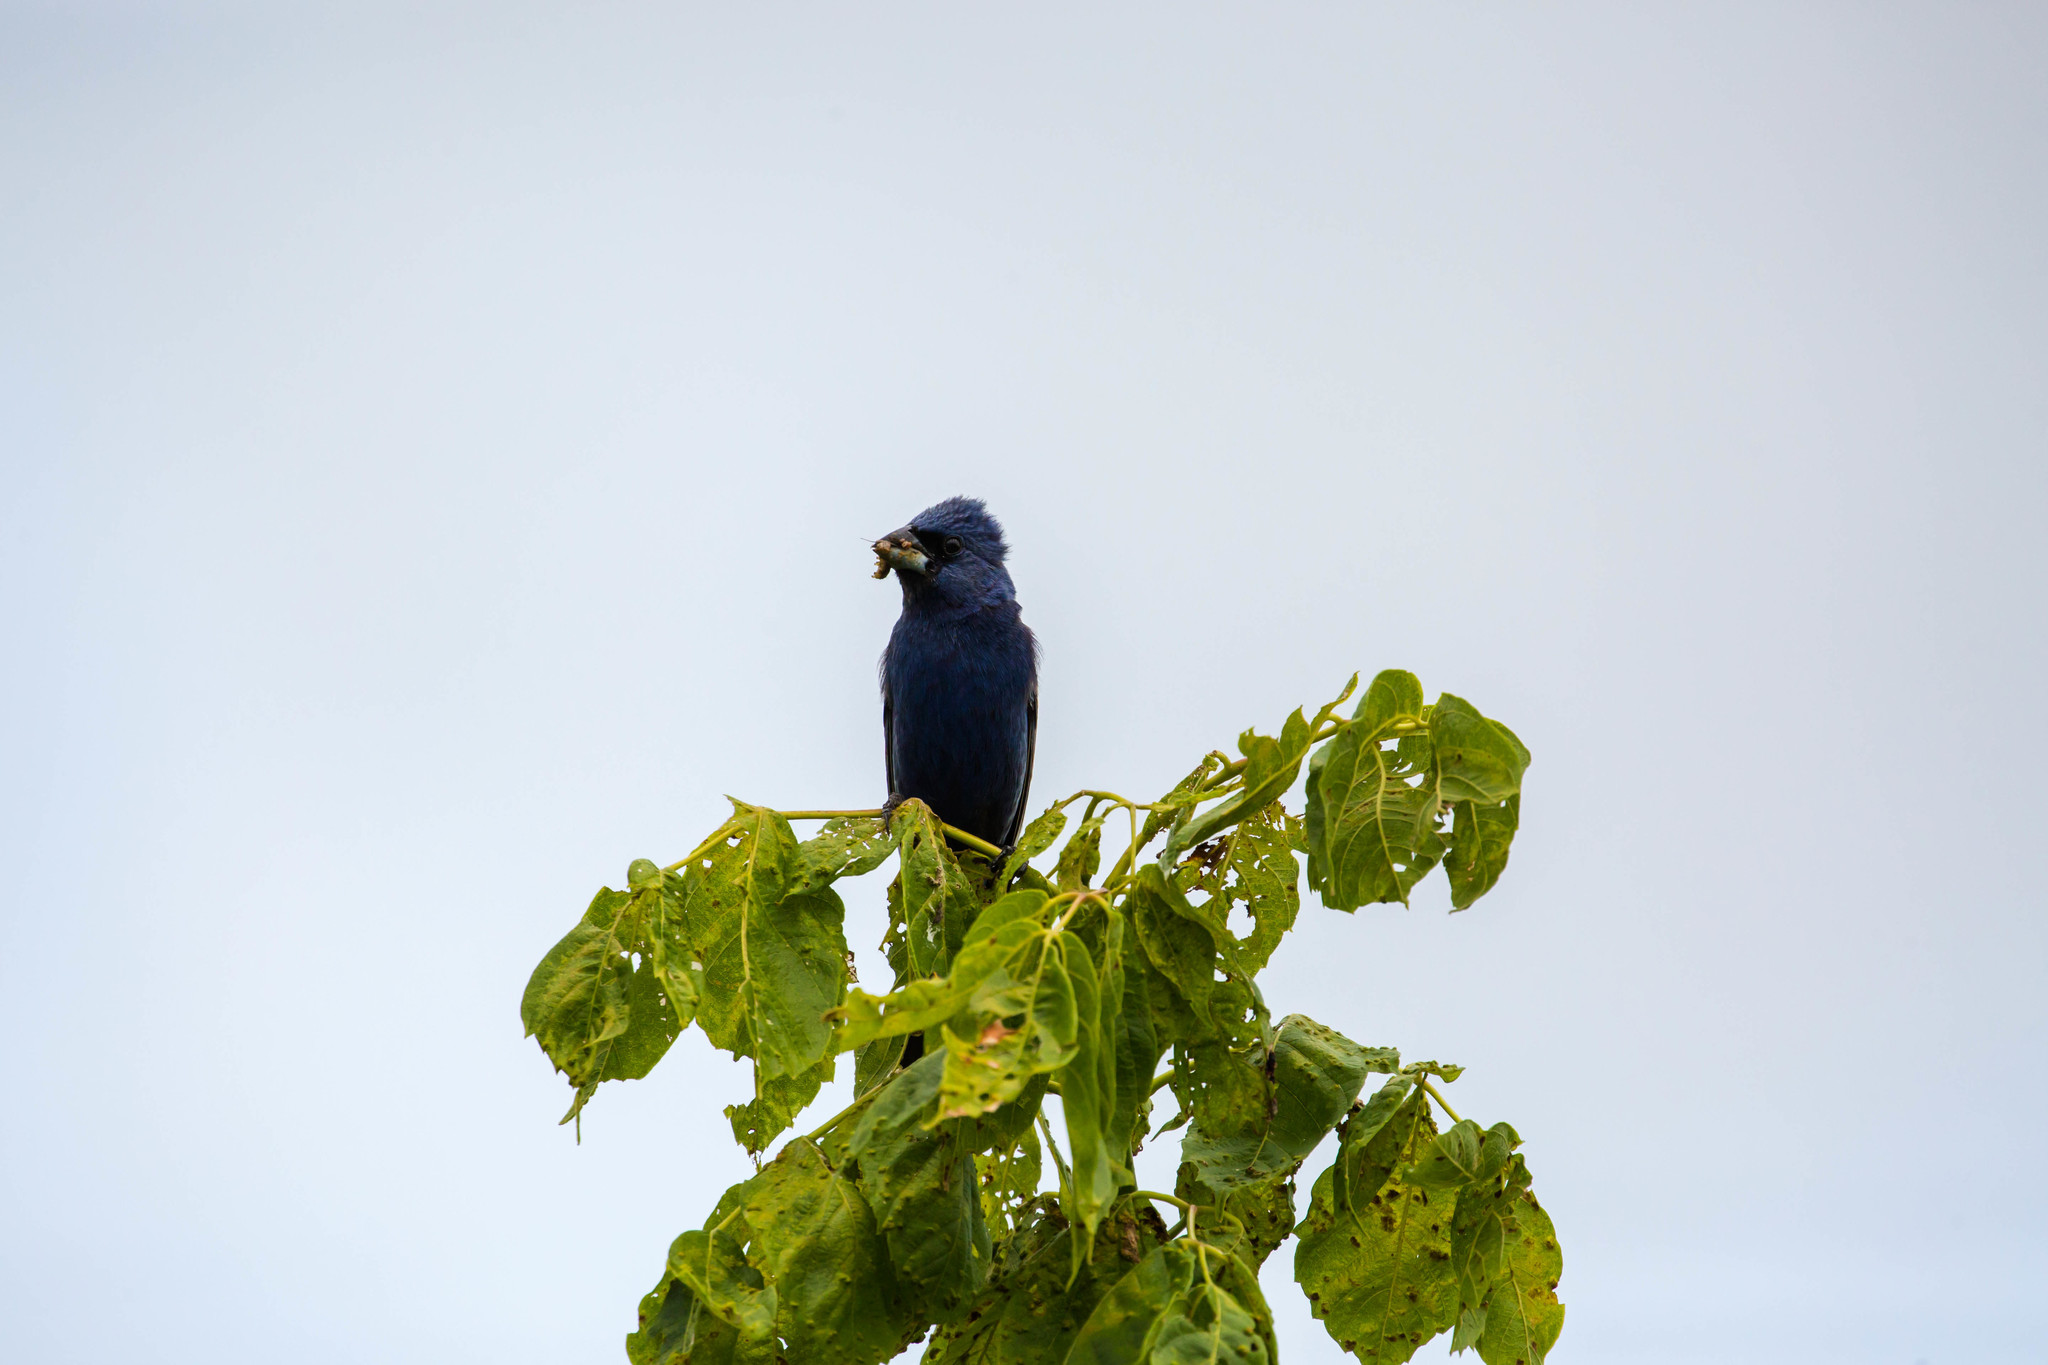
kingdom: Animalia
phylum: Chordata
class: Aves
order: Passeriformes
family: Cardinalidae
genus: Passerina
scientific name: Passerina caerulea
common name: Blue grosbeak
